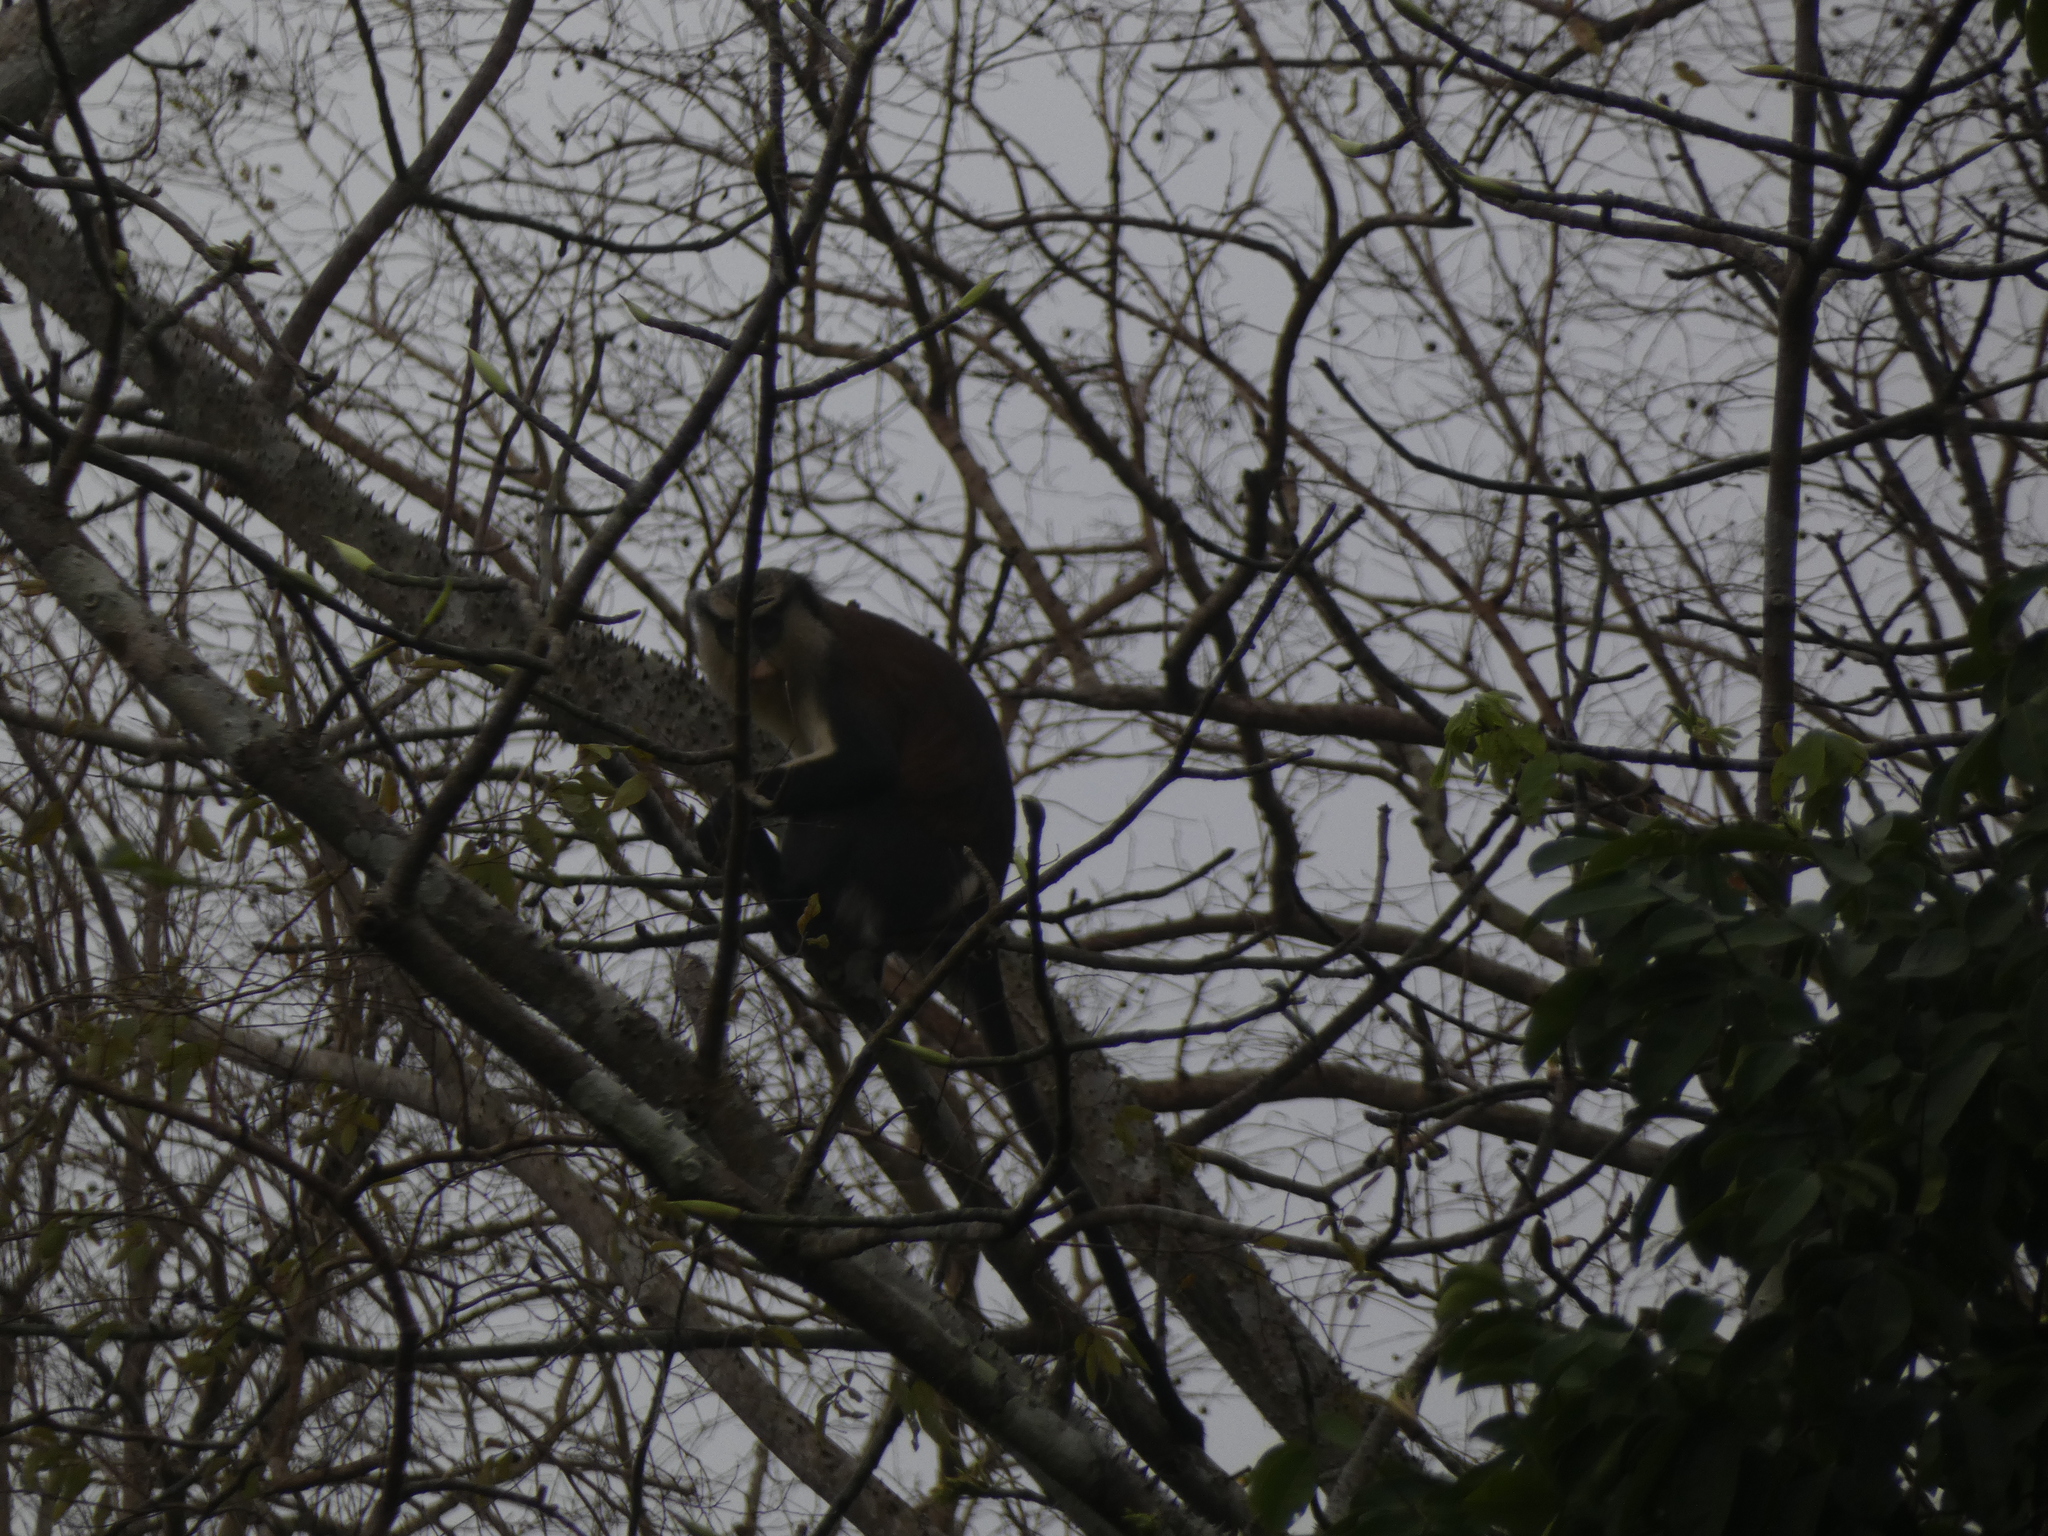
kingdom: Animalia
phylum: Chordata
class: Mammalia
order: Primates
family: Cercopithecidae
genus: Cercopithecus
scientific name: Cercopithecus mona
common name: Mona monkey
